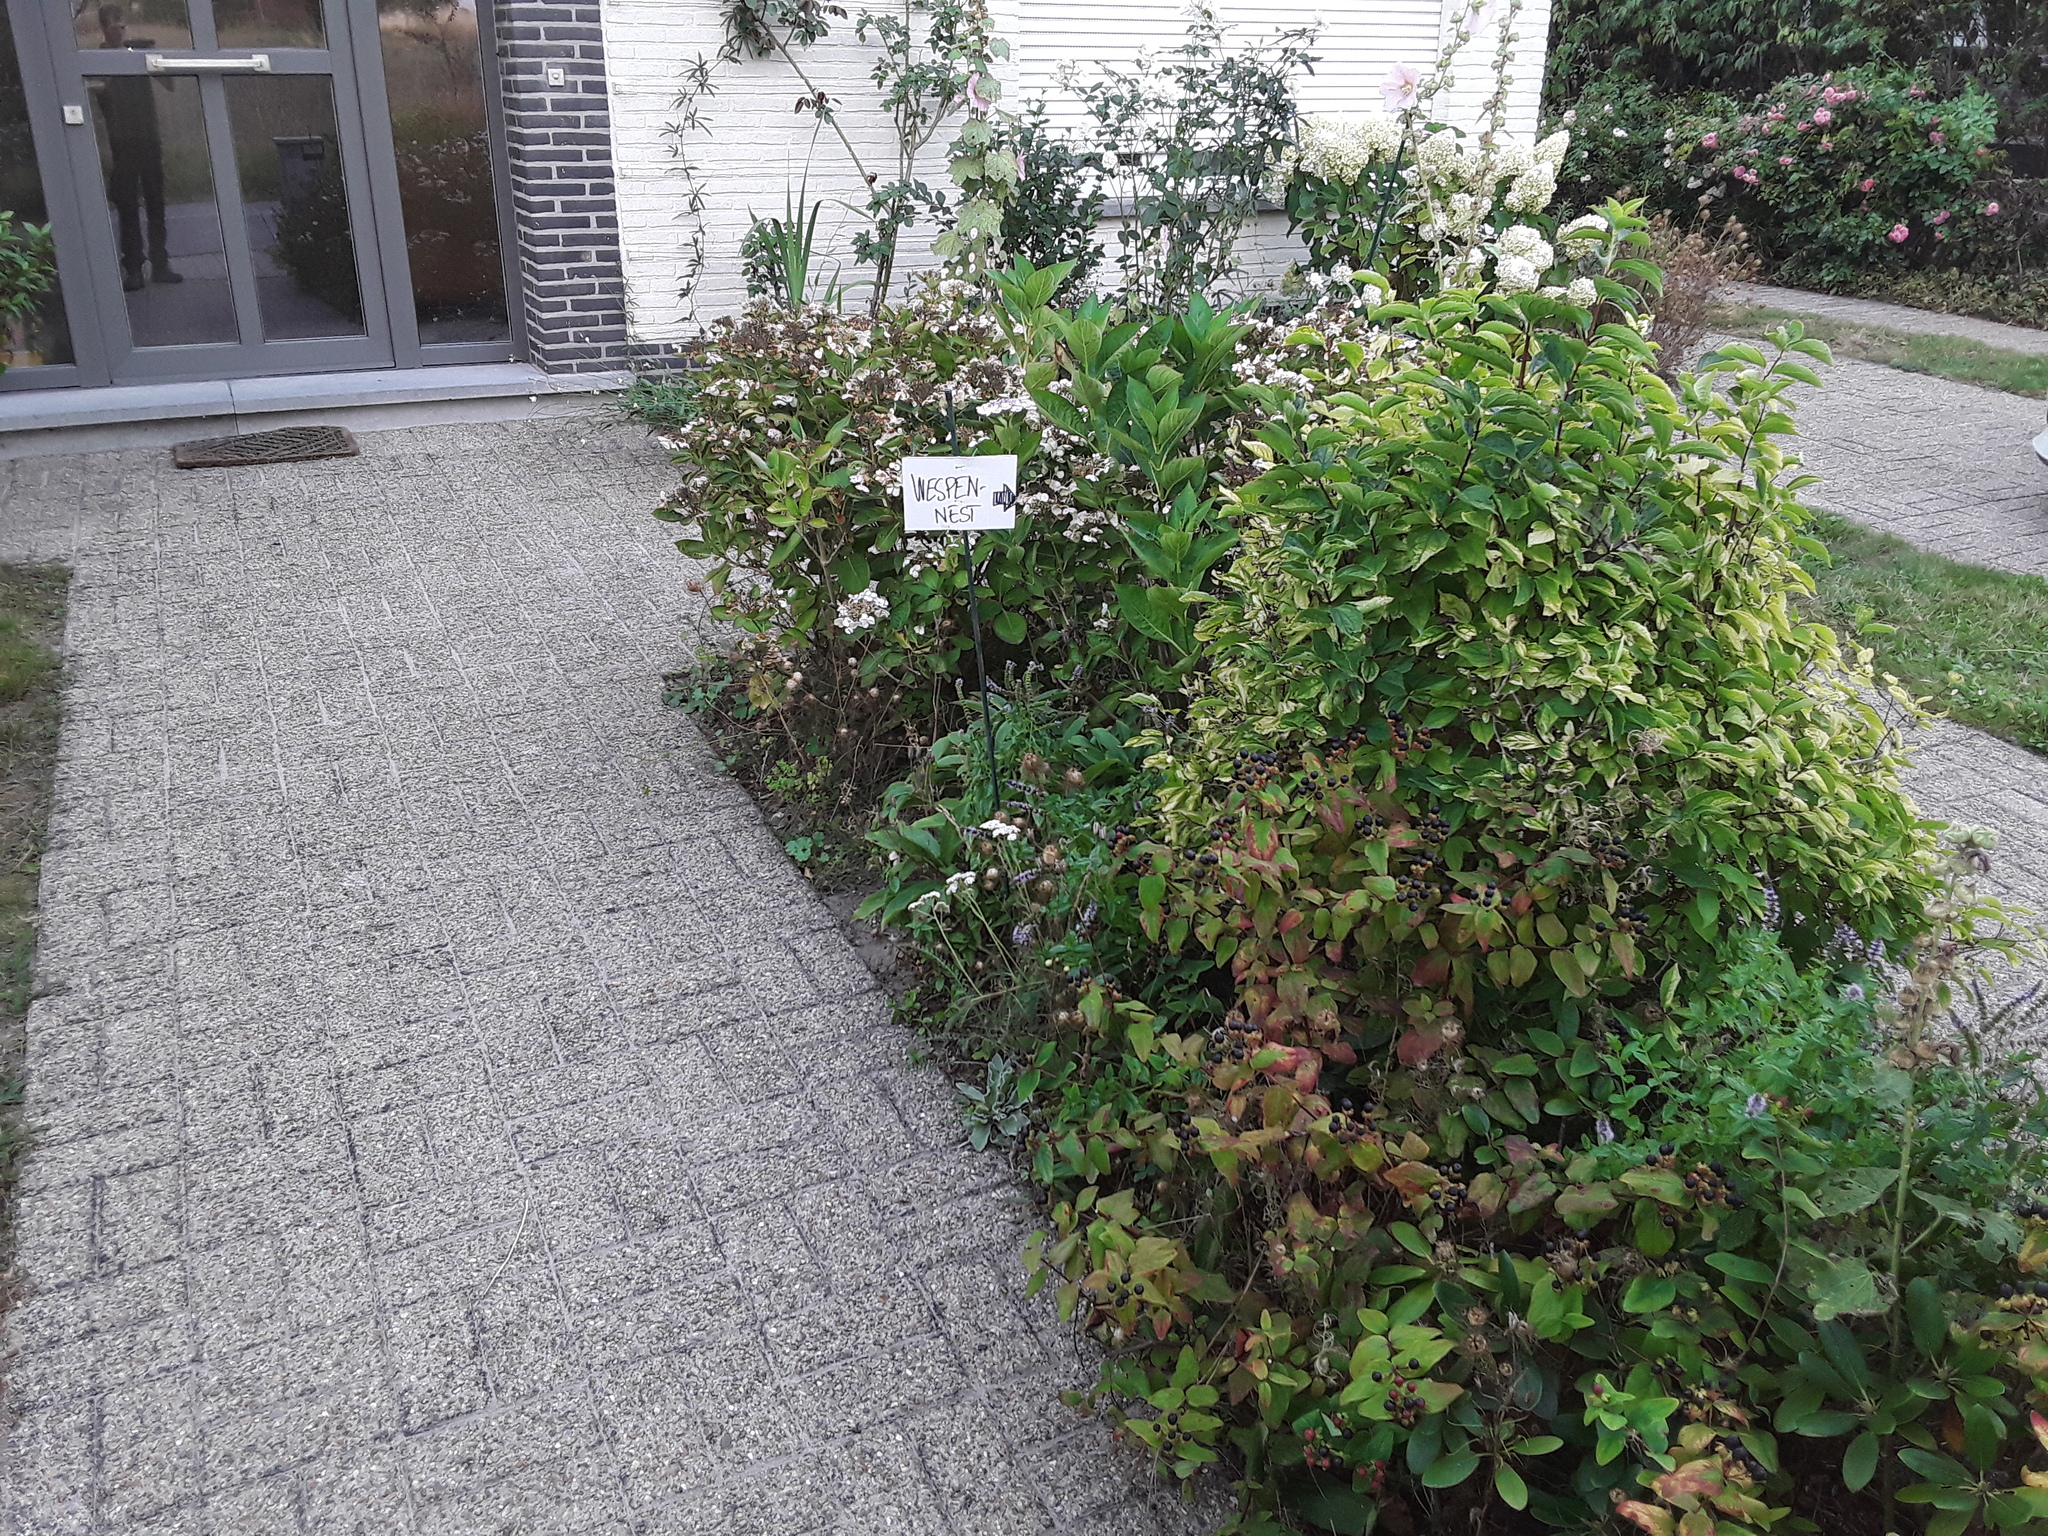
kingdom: Animalia
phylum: Arthropoda
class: Insecta
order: Hymenoptera
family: Vespidae
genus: Vespa
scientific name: Vespa velutina
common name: Asian hornet
